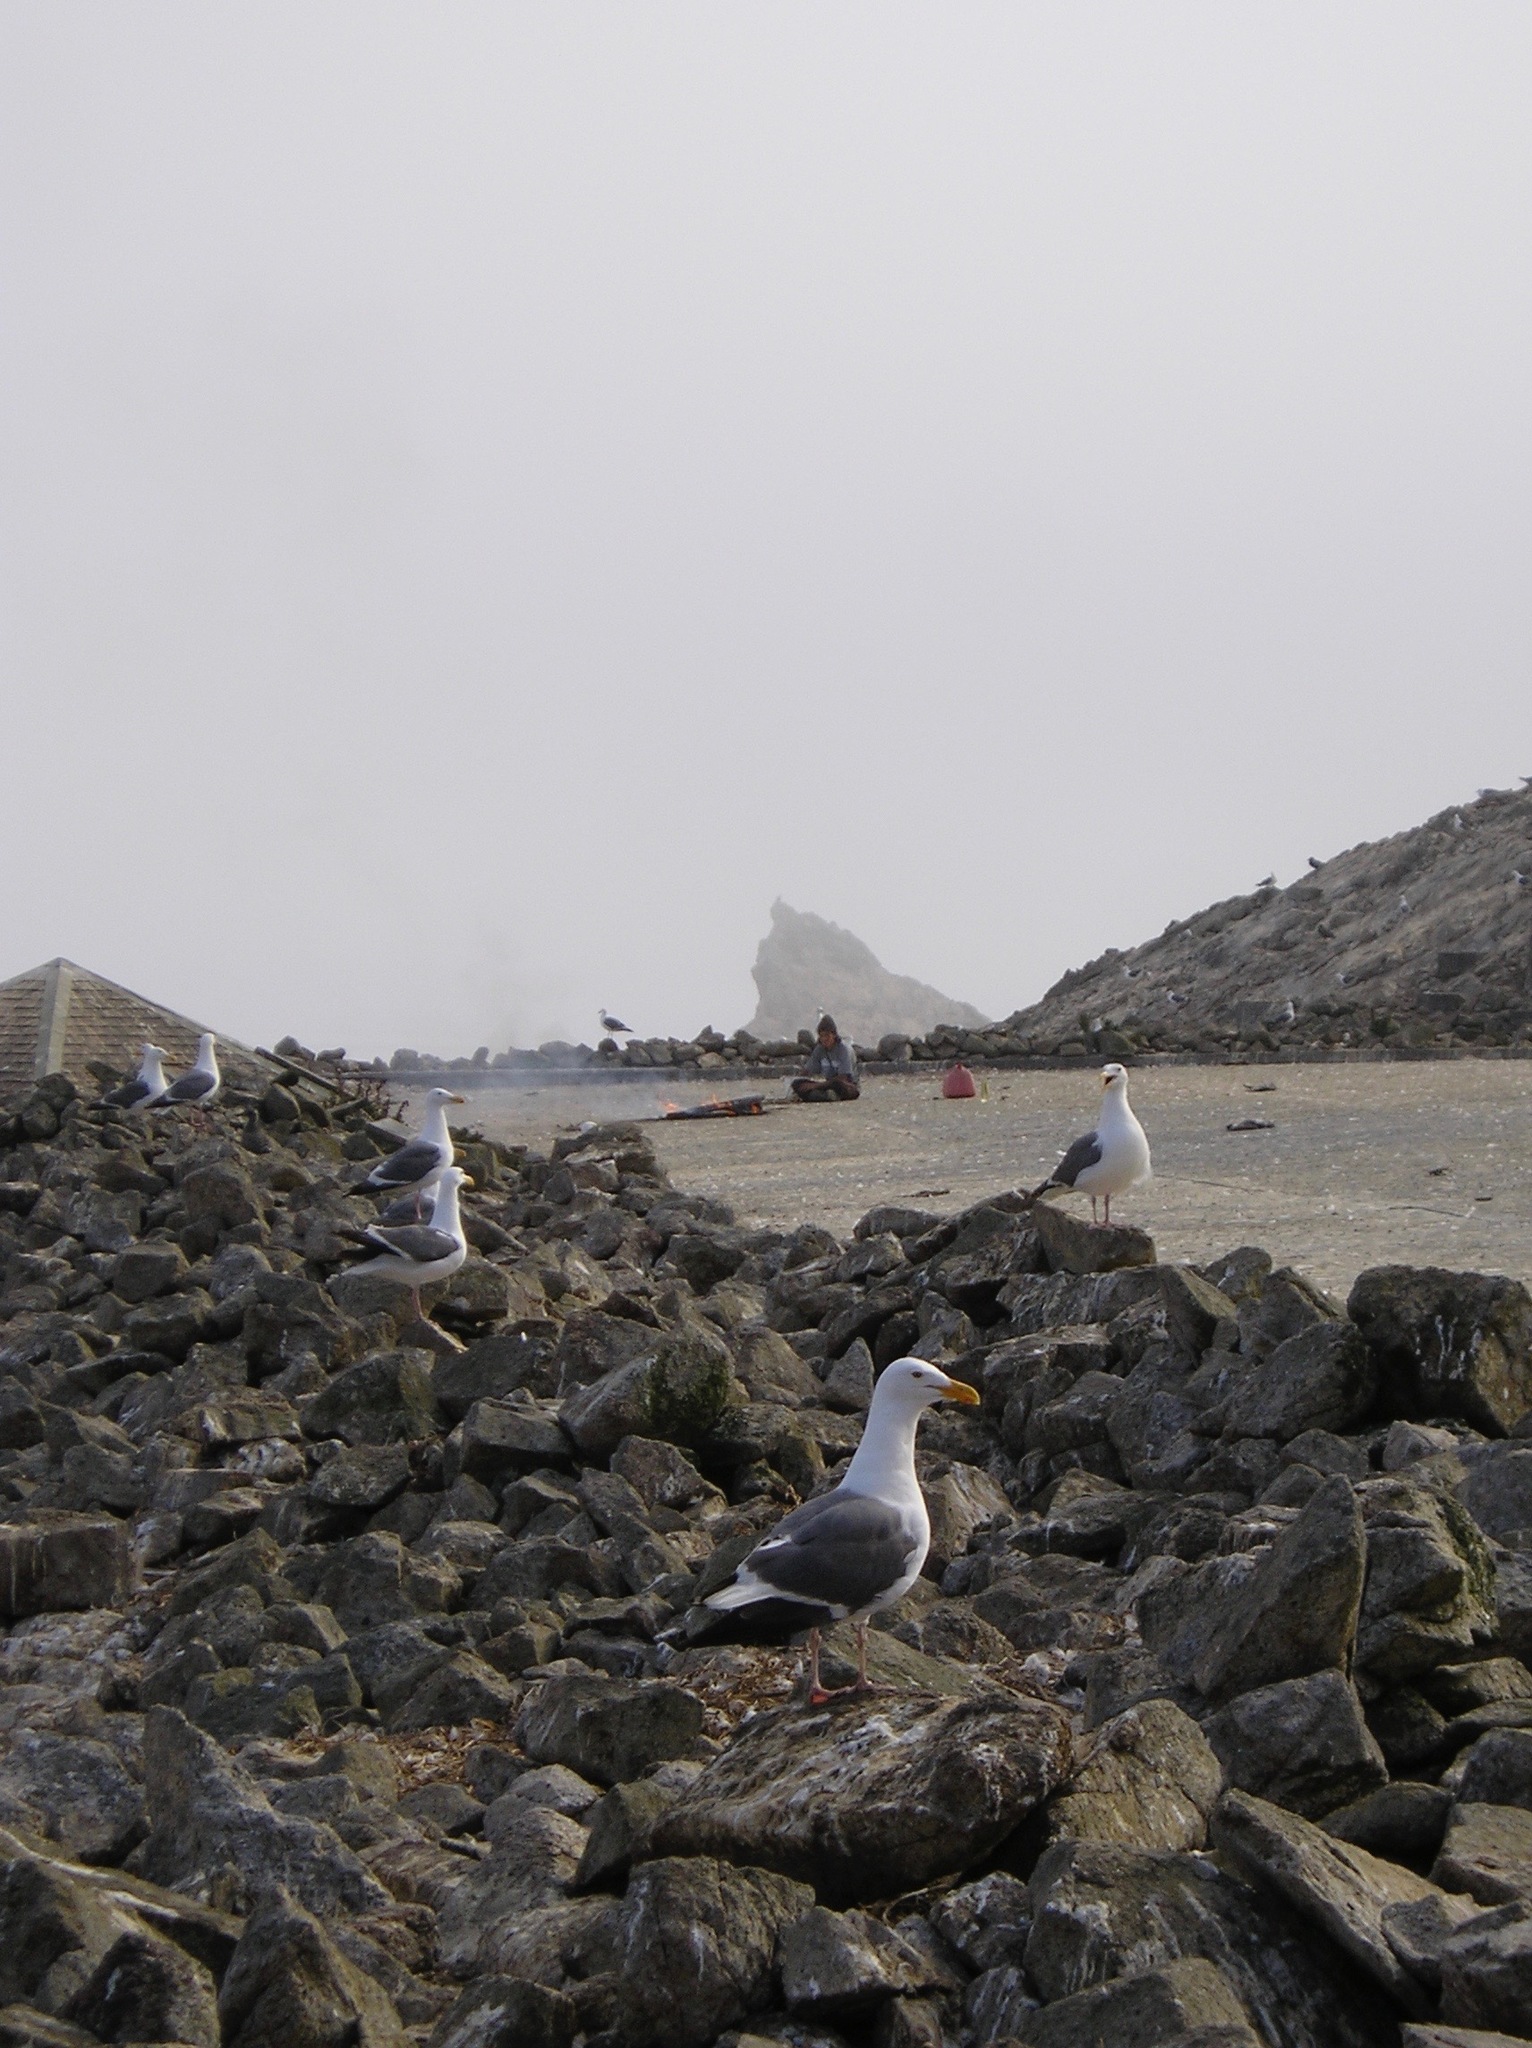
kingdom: Animalia
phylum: Chordata
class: Aves
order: Charadriiformes
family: Laridae
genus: Larus
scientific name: Larus occidentalis
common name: Western gull
